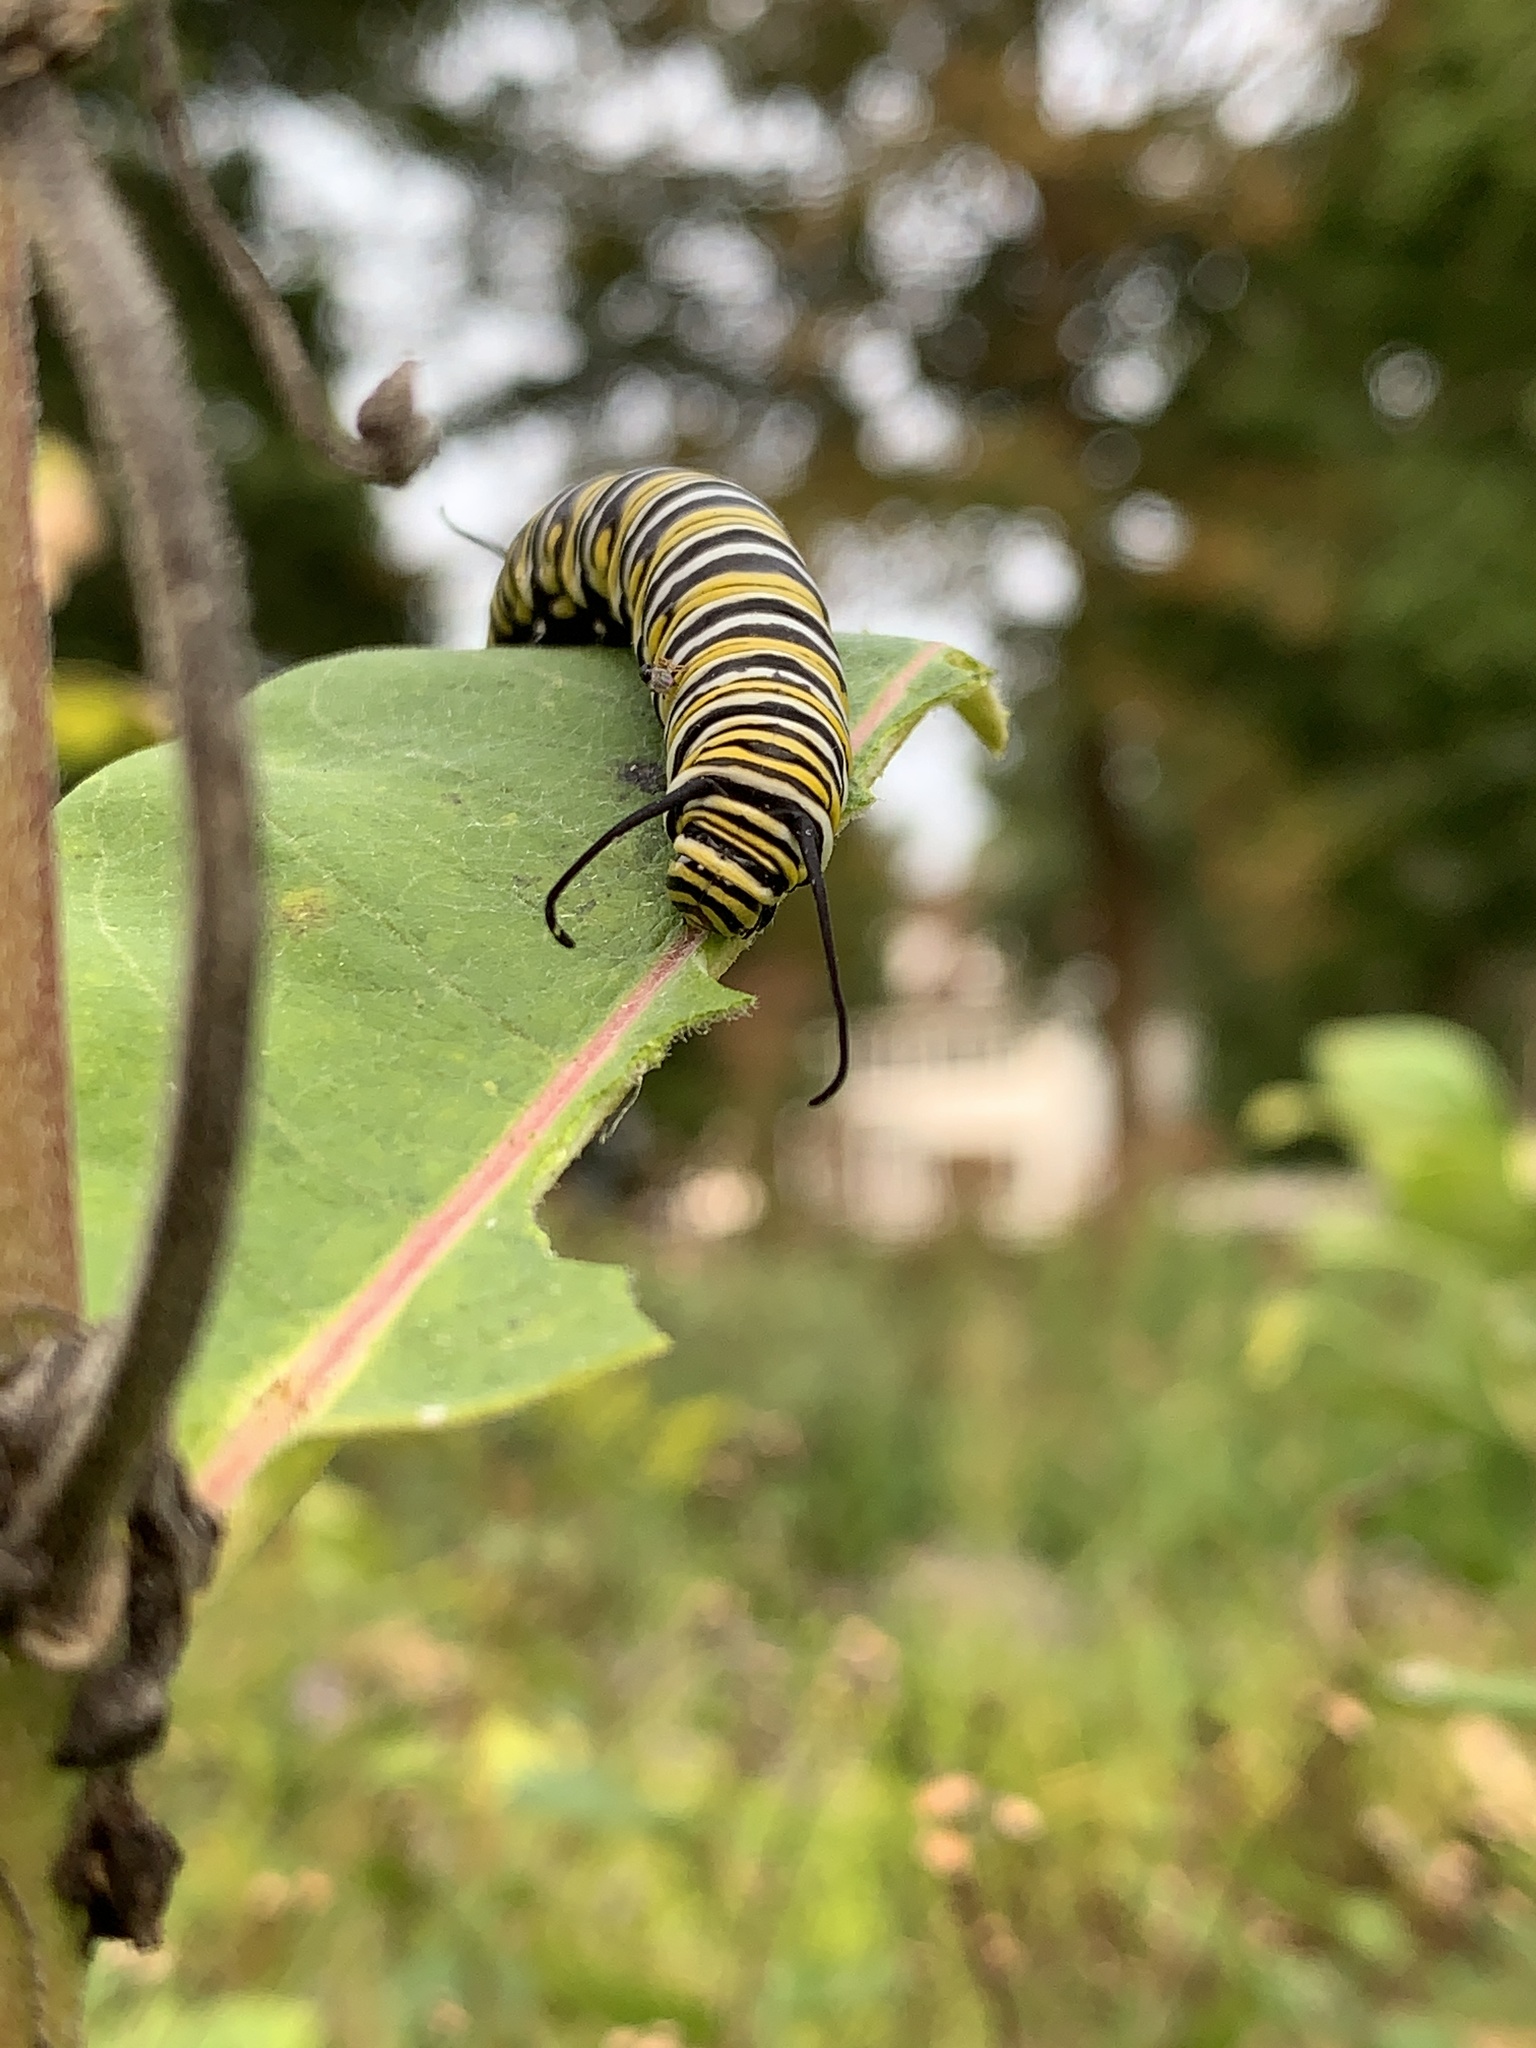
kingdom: Animalia
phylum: Arthropoda
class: Insecta
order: Lepidoptera
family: Nymphalidae
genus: Danaus
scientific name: Danaus plexippus
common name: Monarch
